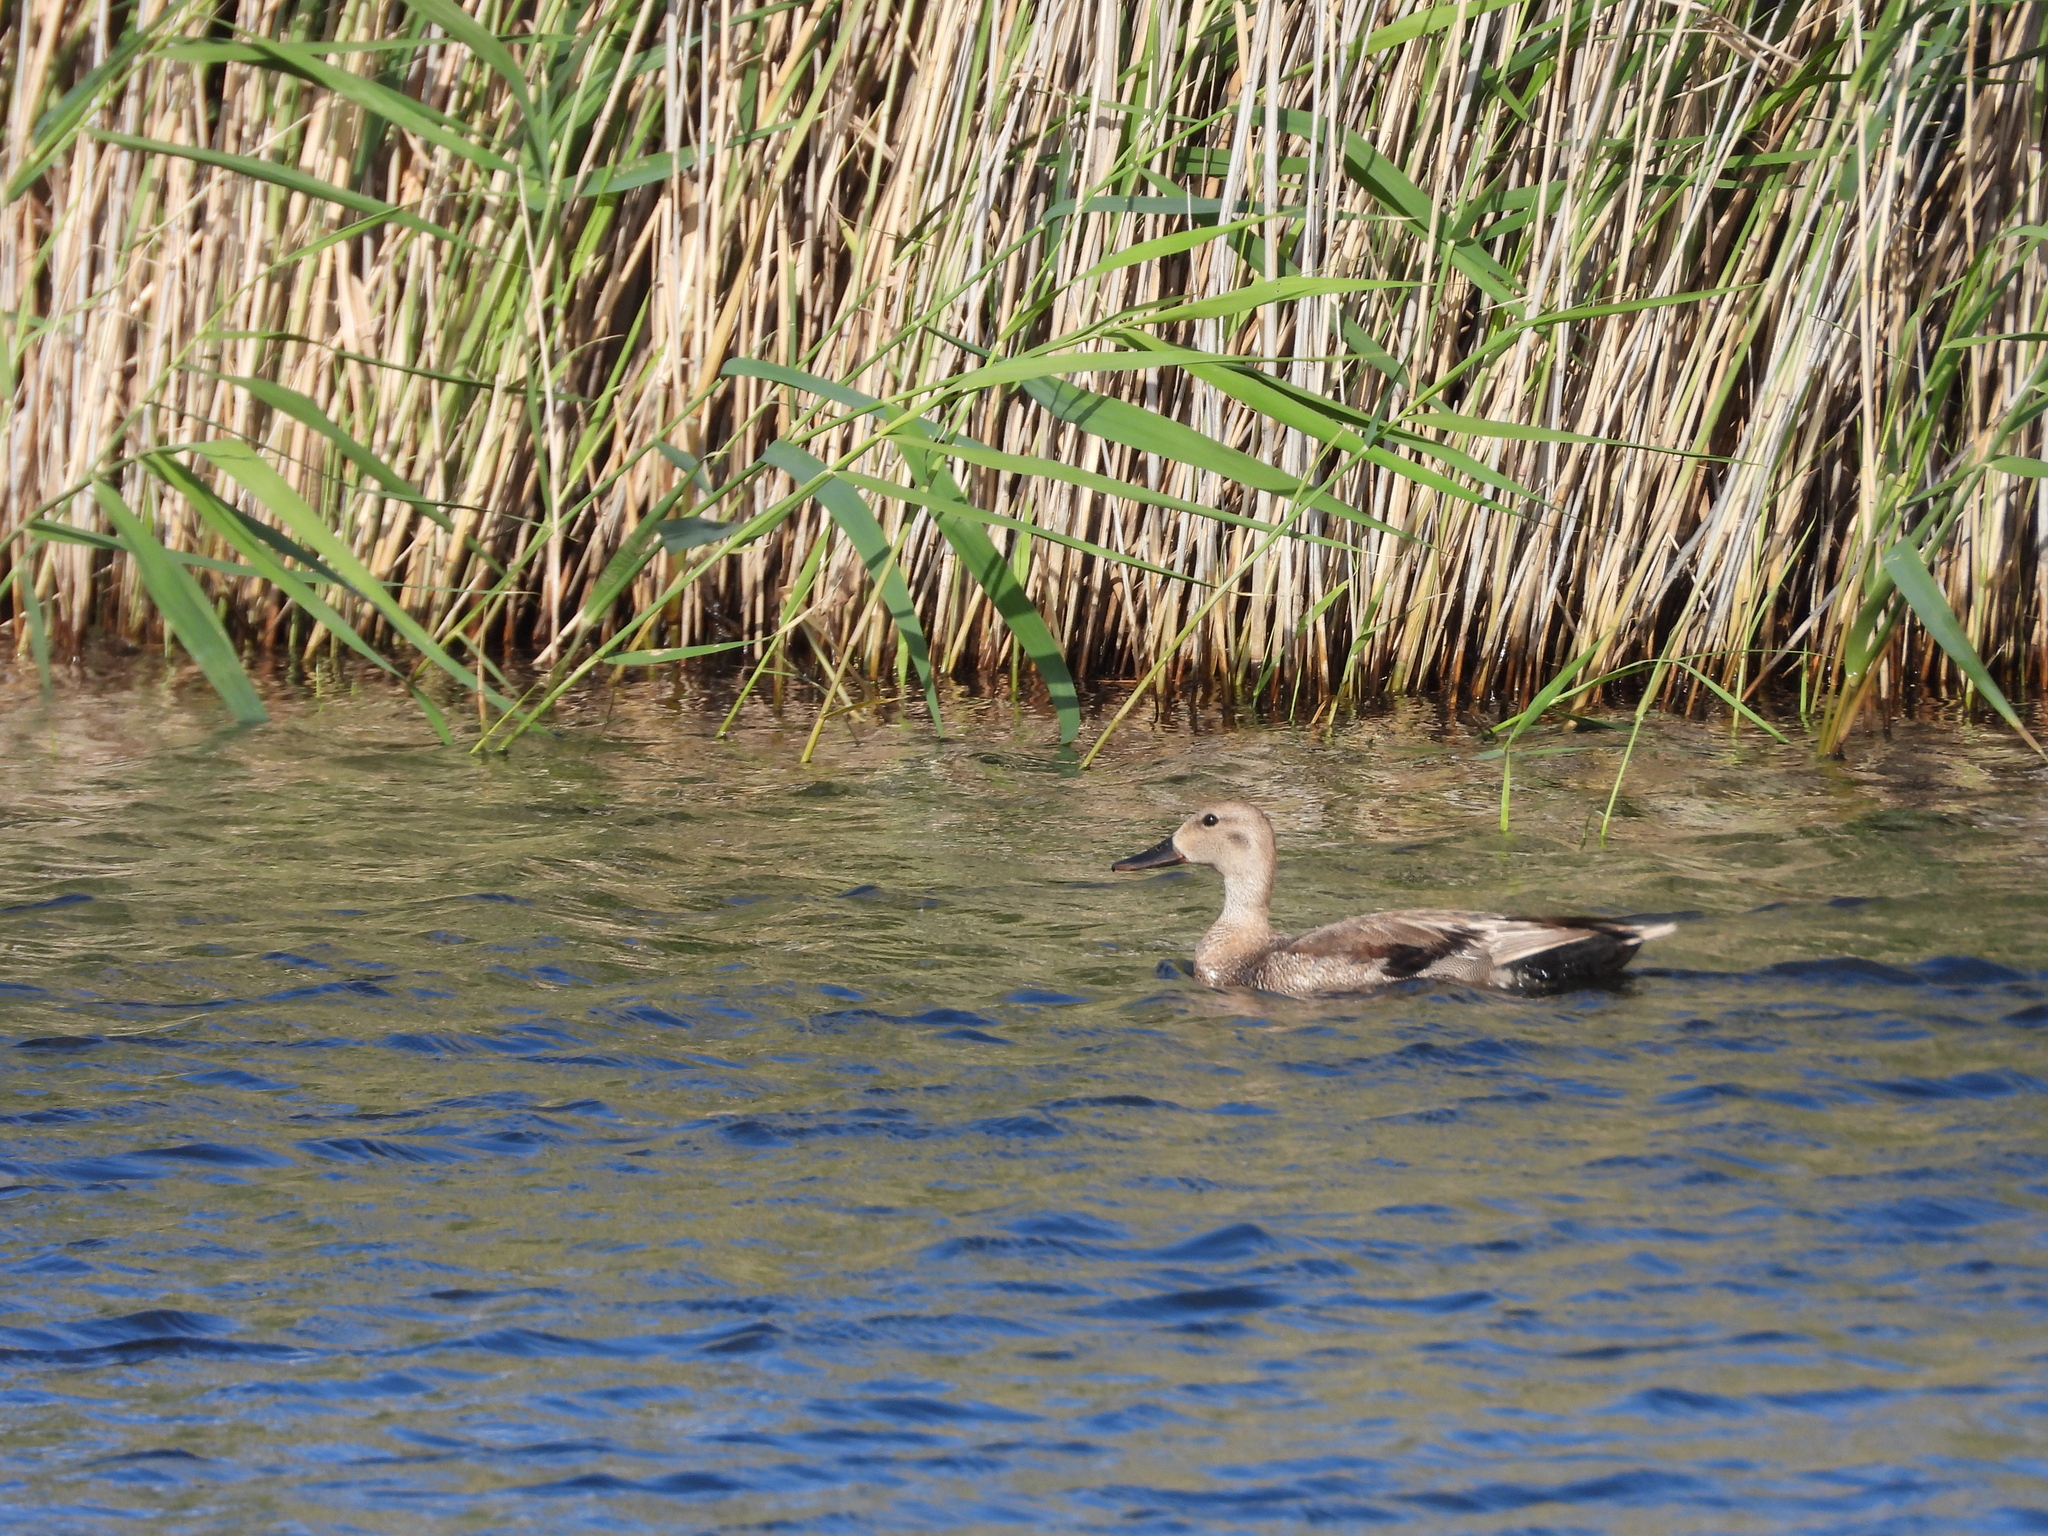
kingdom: Animalia
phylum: Chordata
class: Aves
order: Anseriformes
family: Anatidae
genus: Mareca
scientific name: Mareca strepera
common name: Gadwall
